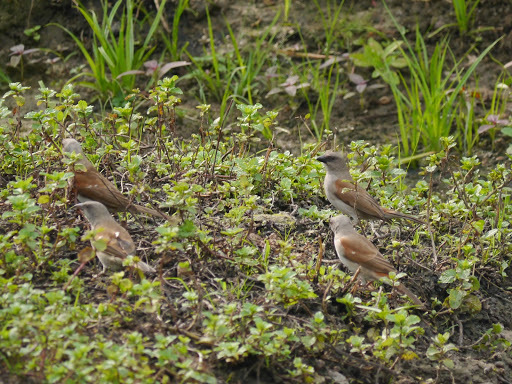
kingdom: Animalia
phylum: Chordata
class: Aves
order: Passeriformes
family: Passeridae
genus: Passer
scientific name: Passer griseus
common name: Northern grey-headed sparrow
